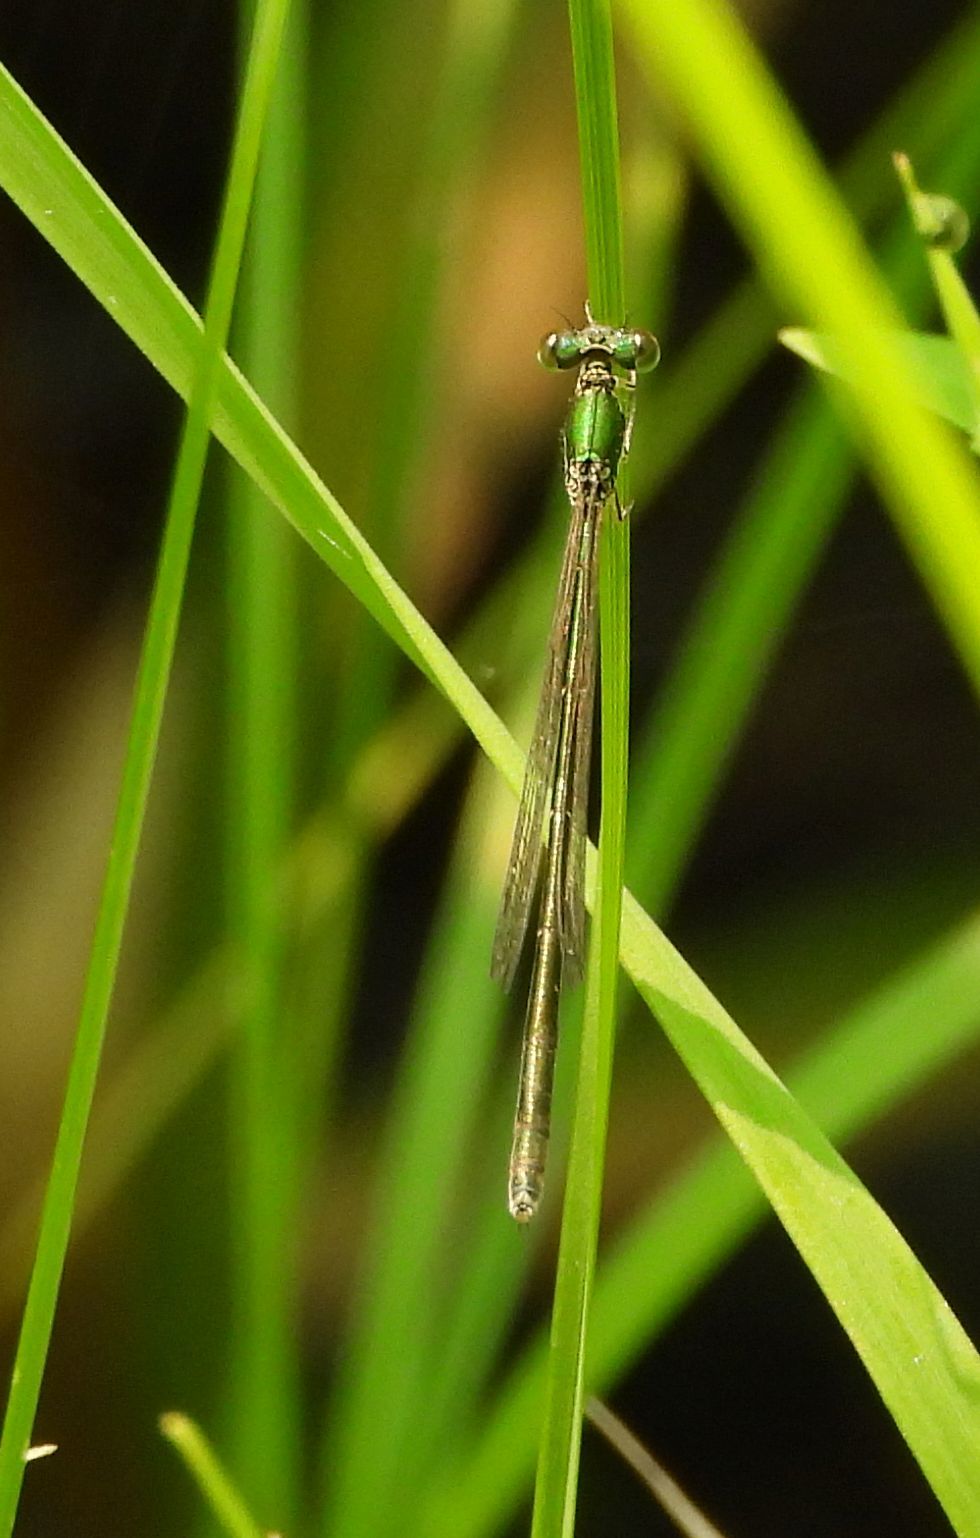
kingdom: Animalia
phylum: Arthropoda
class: Insecta
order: Odonata
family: Coenagrionidae
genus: Nehalennia
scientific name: Nehalennia irene
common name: Sedge sprite
